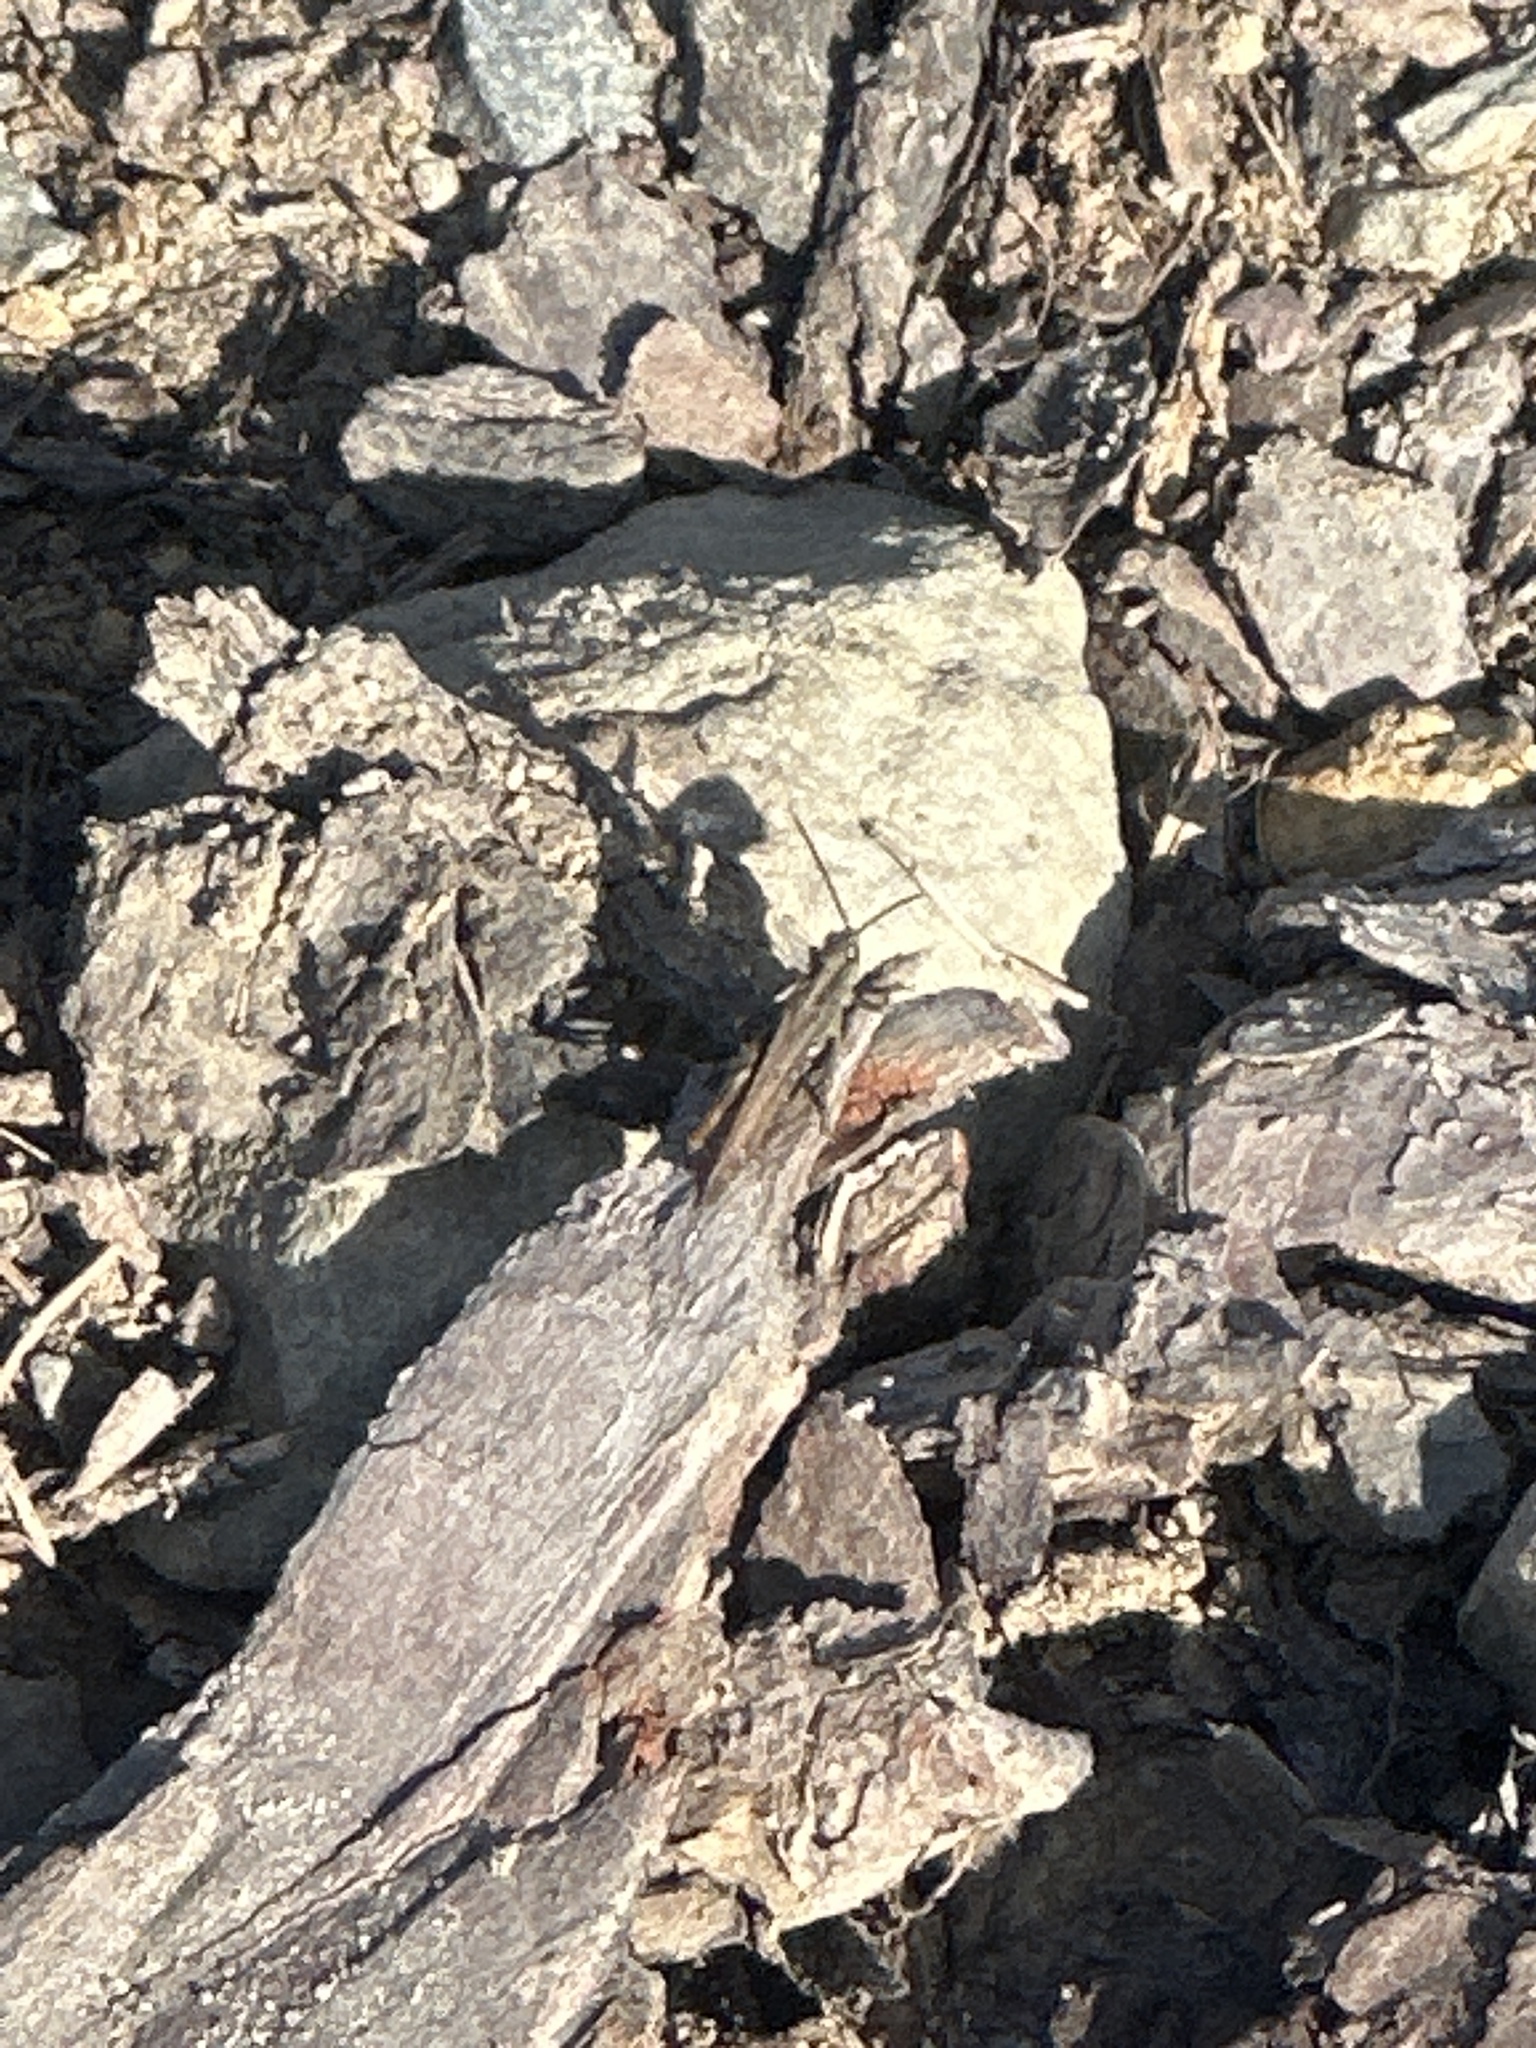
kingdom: Animalia
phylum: Arthropoda
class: Insecta
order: Orthoptera
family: Acrididae
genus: Chorthippus
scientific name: Chorthippus biguttulus
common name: Bow-winged grasshopper
